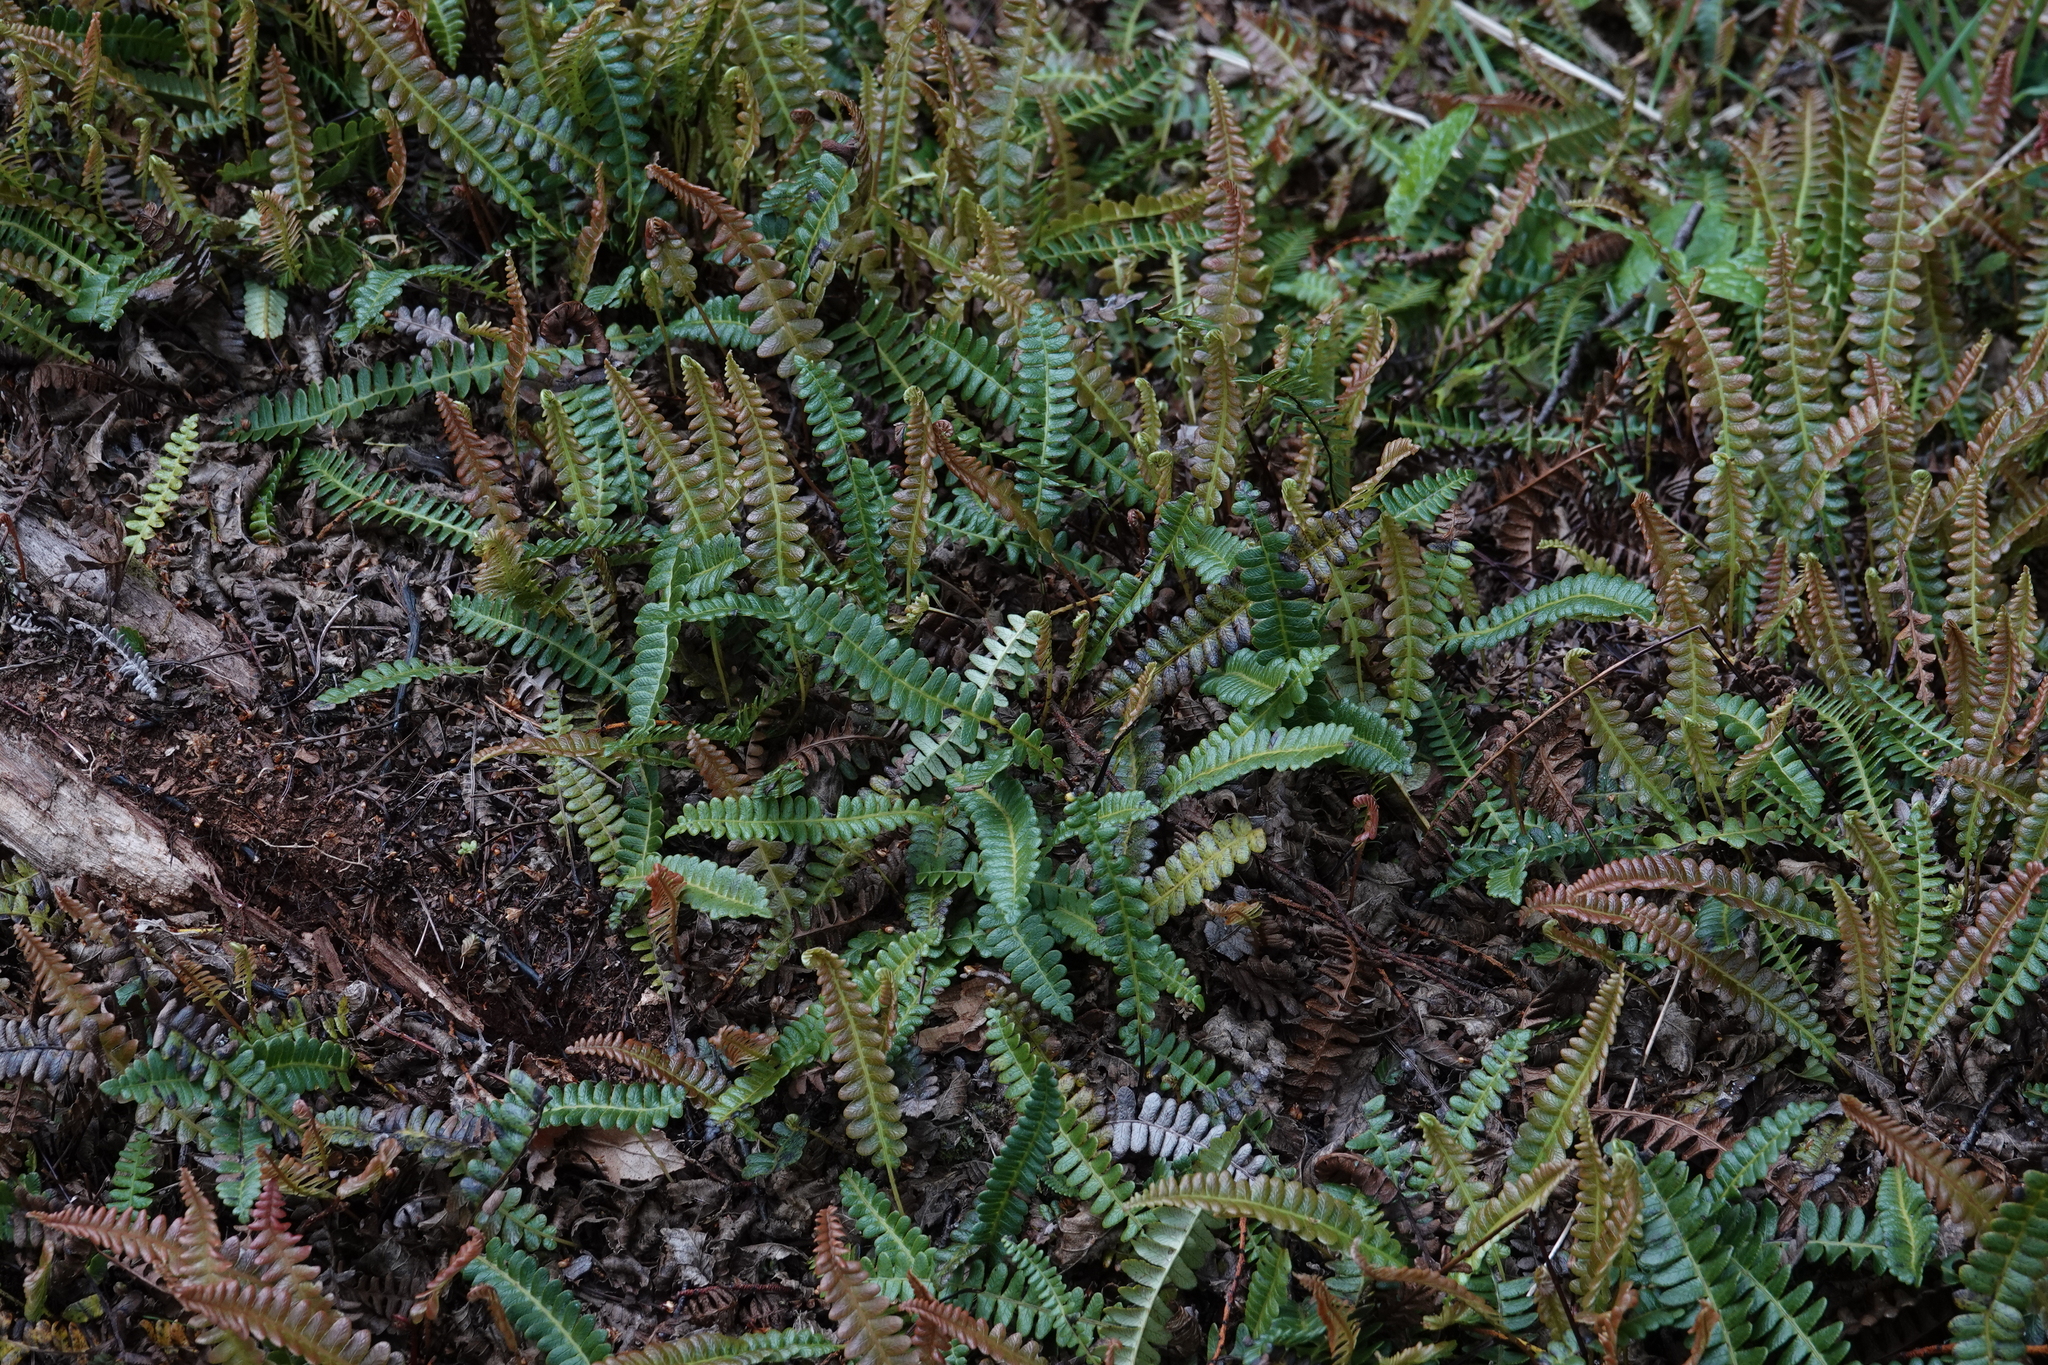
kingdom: Plantae
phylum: Tracheophyta
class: Polypodiopsida
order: Polypodiales
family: Blechnaceae
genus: Austroblechnum
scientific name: Austroblechnum penna-marina
